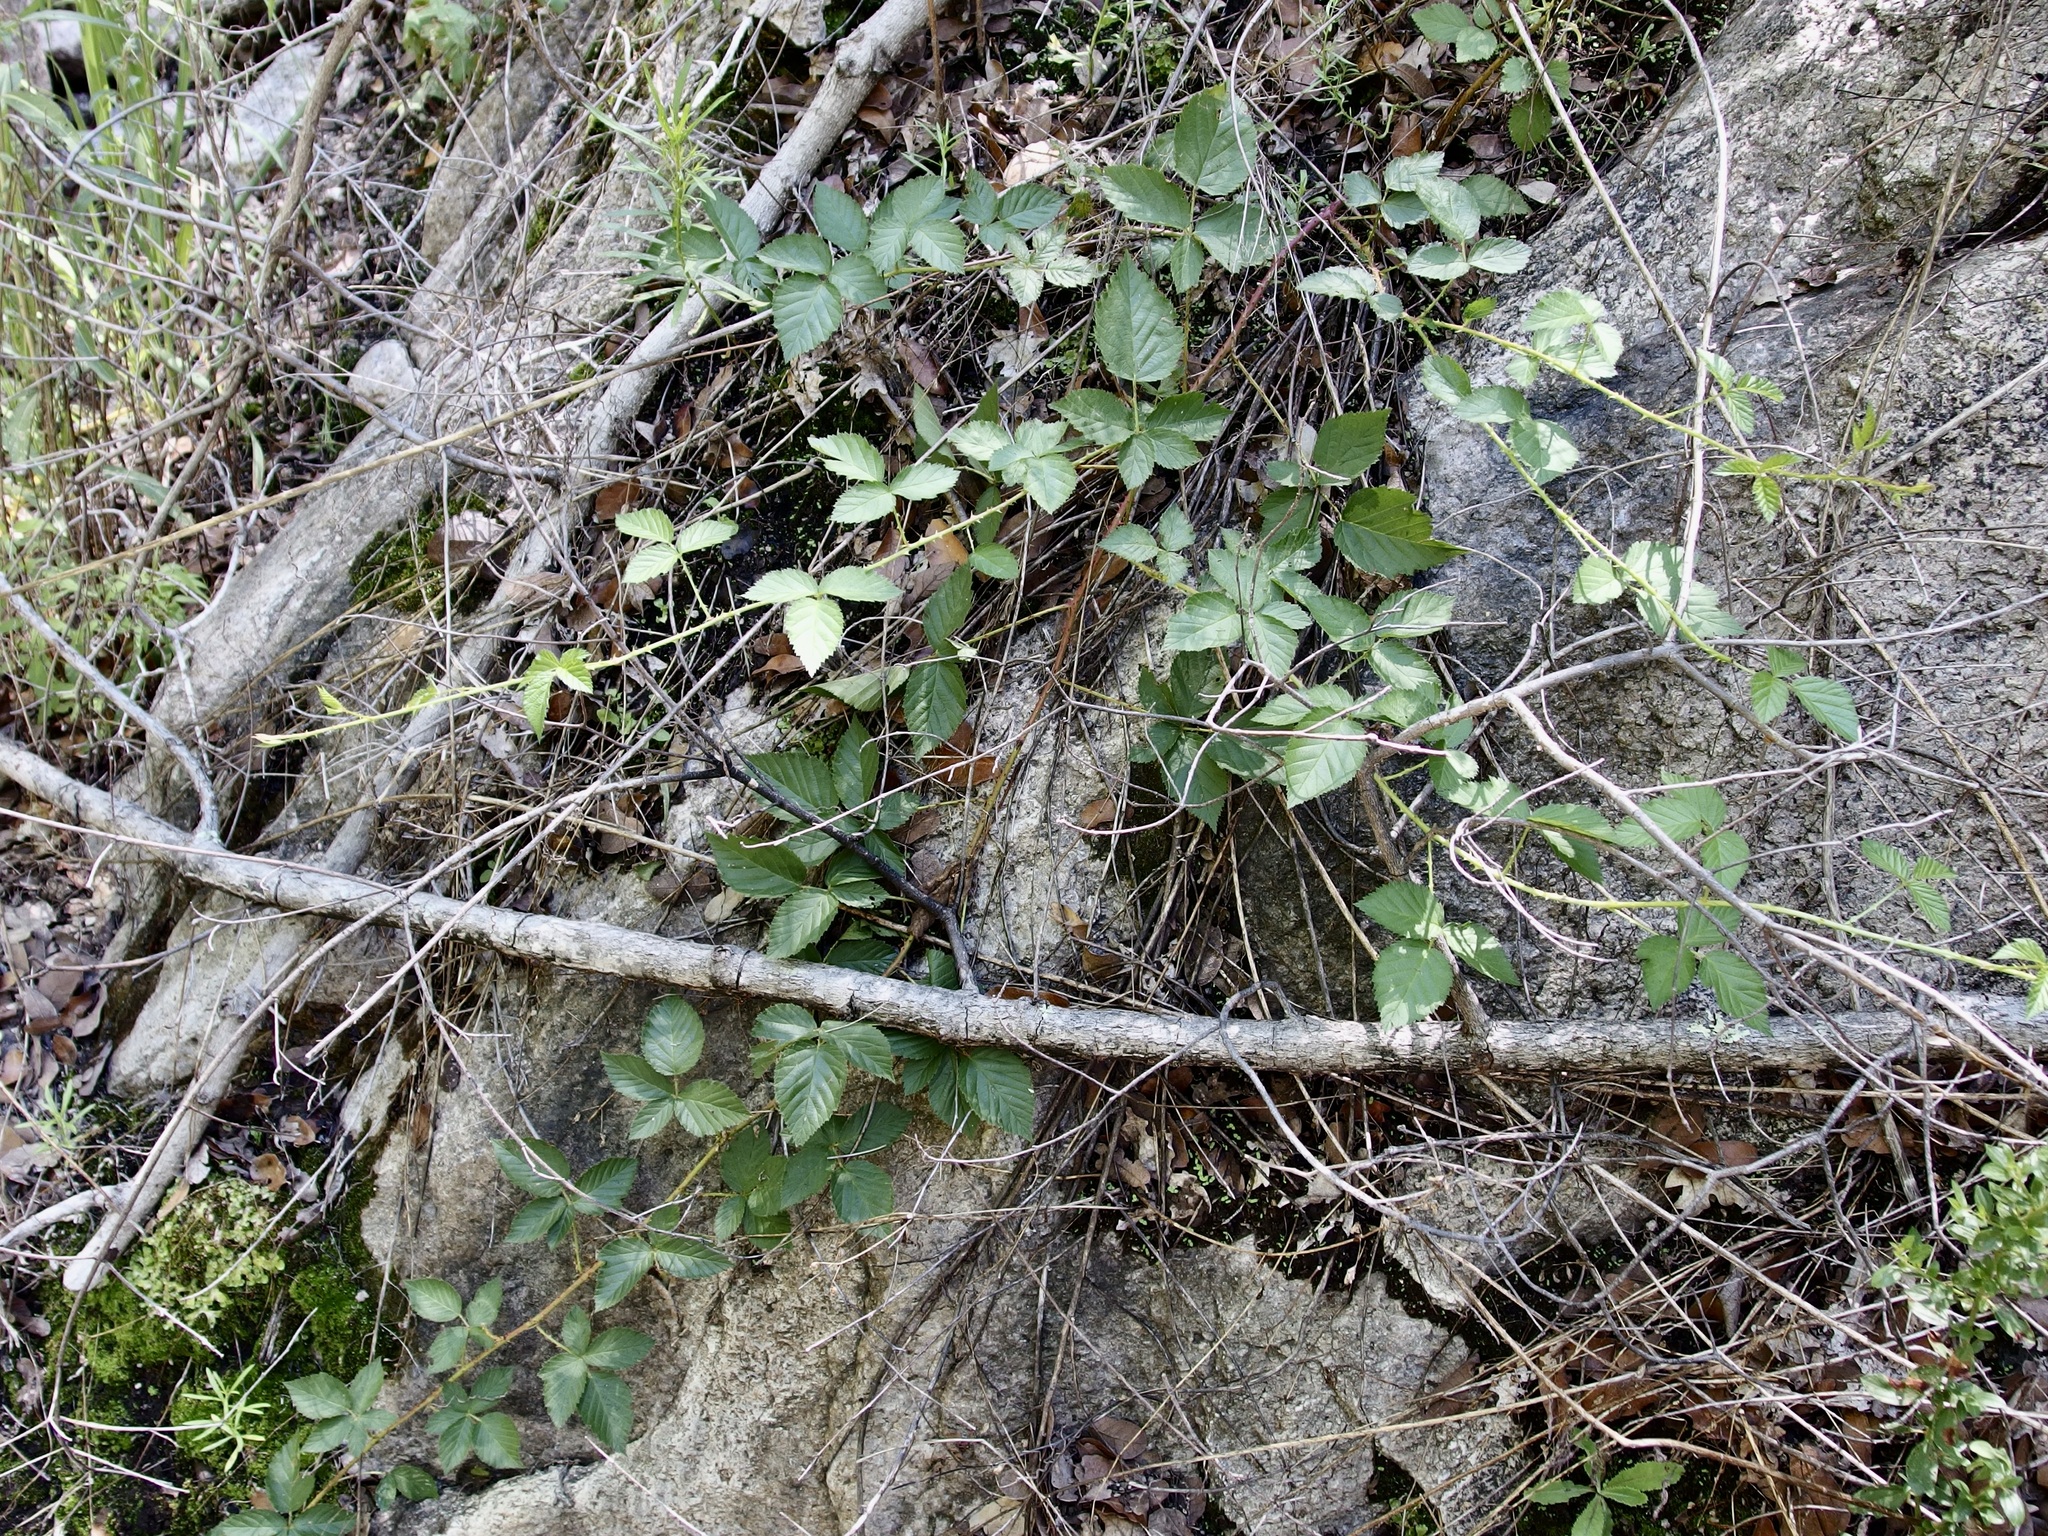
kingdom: Plantae
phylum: Tracheophyta
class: Magnoliopsida
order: Rosales
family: Rosaceae
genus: Rubus
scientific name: Rubus arizonensis
